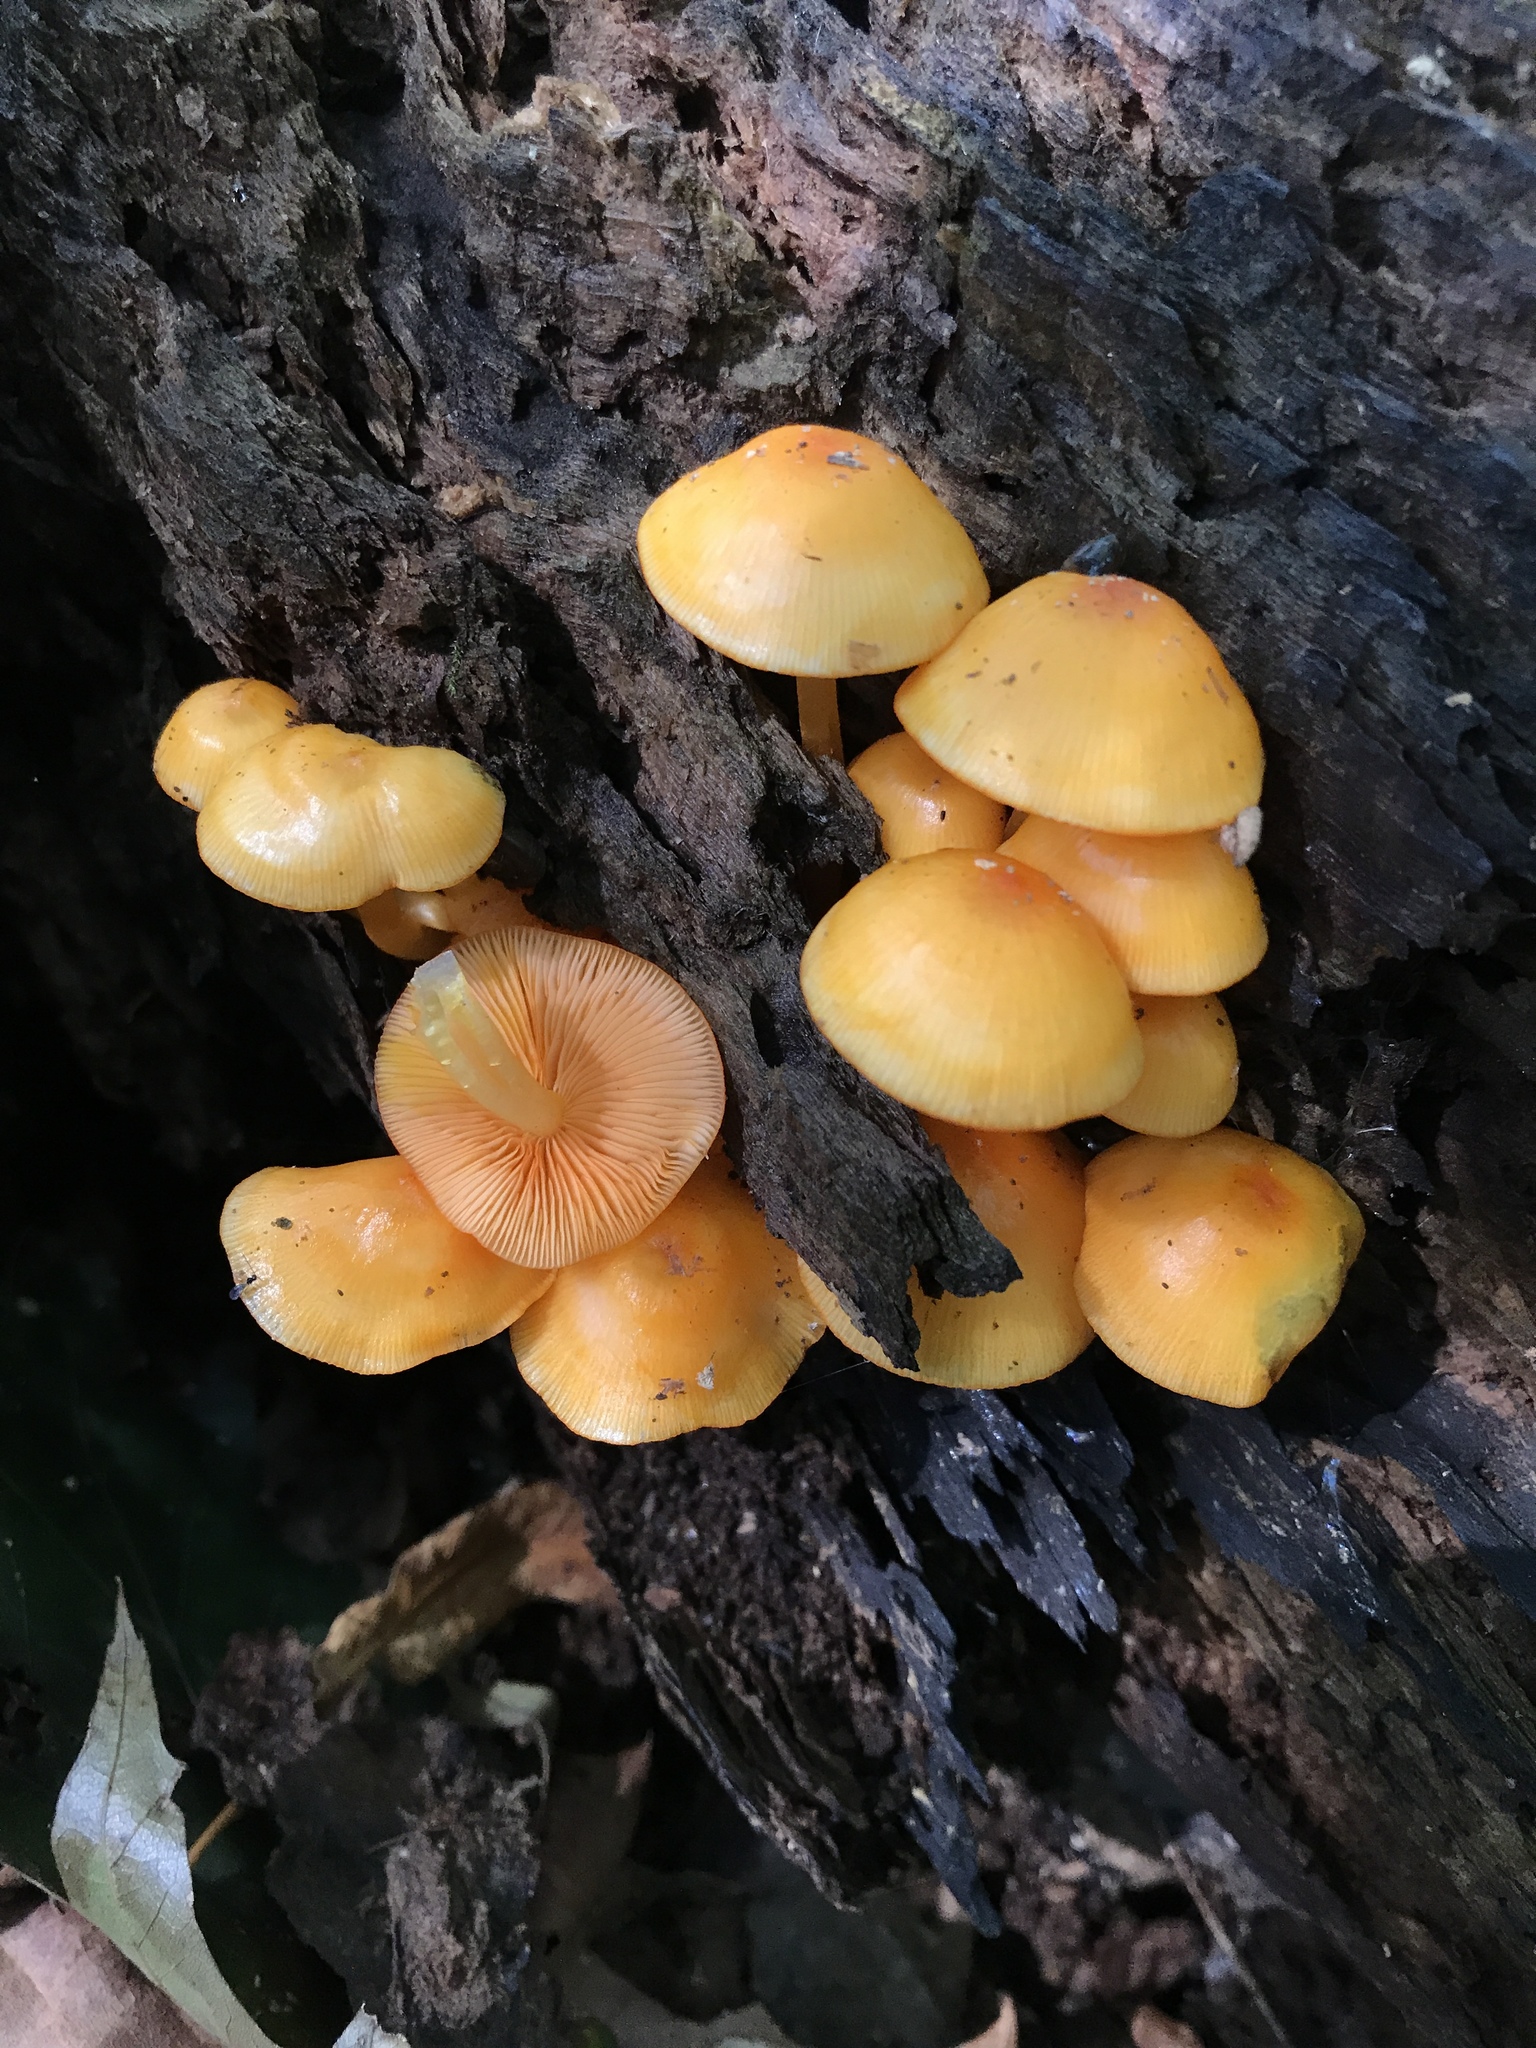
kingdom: Fungi
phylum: Basidiomycota
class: Agaricomycetes
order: Agaricales
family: Mycenaceae
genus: Mycena
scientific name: Mycena leaiana
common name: Orange mycena
